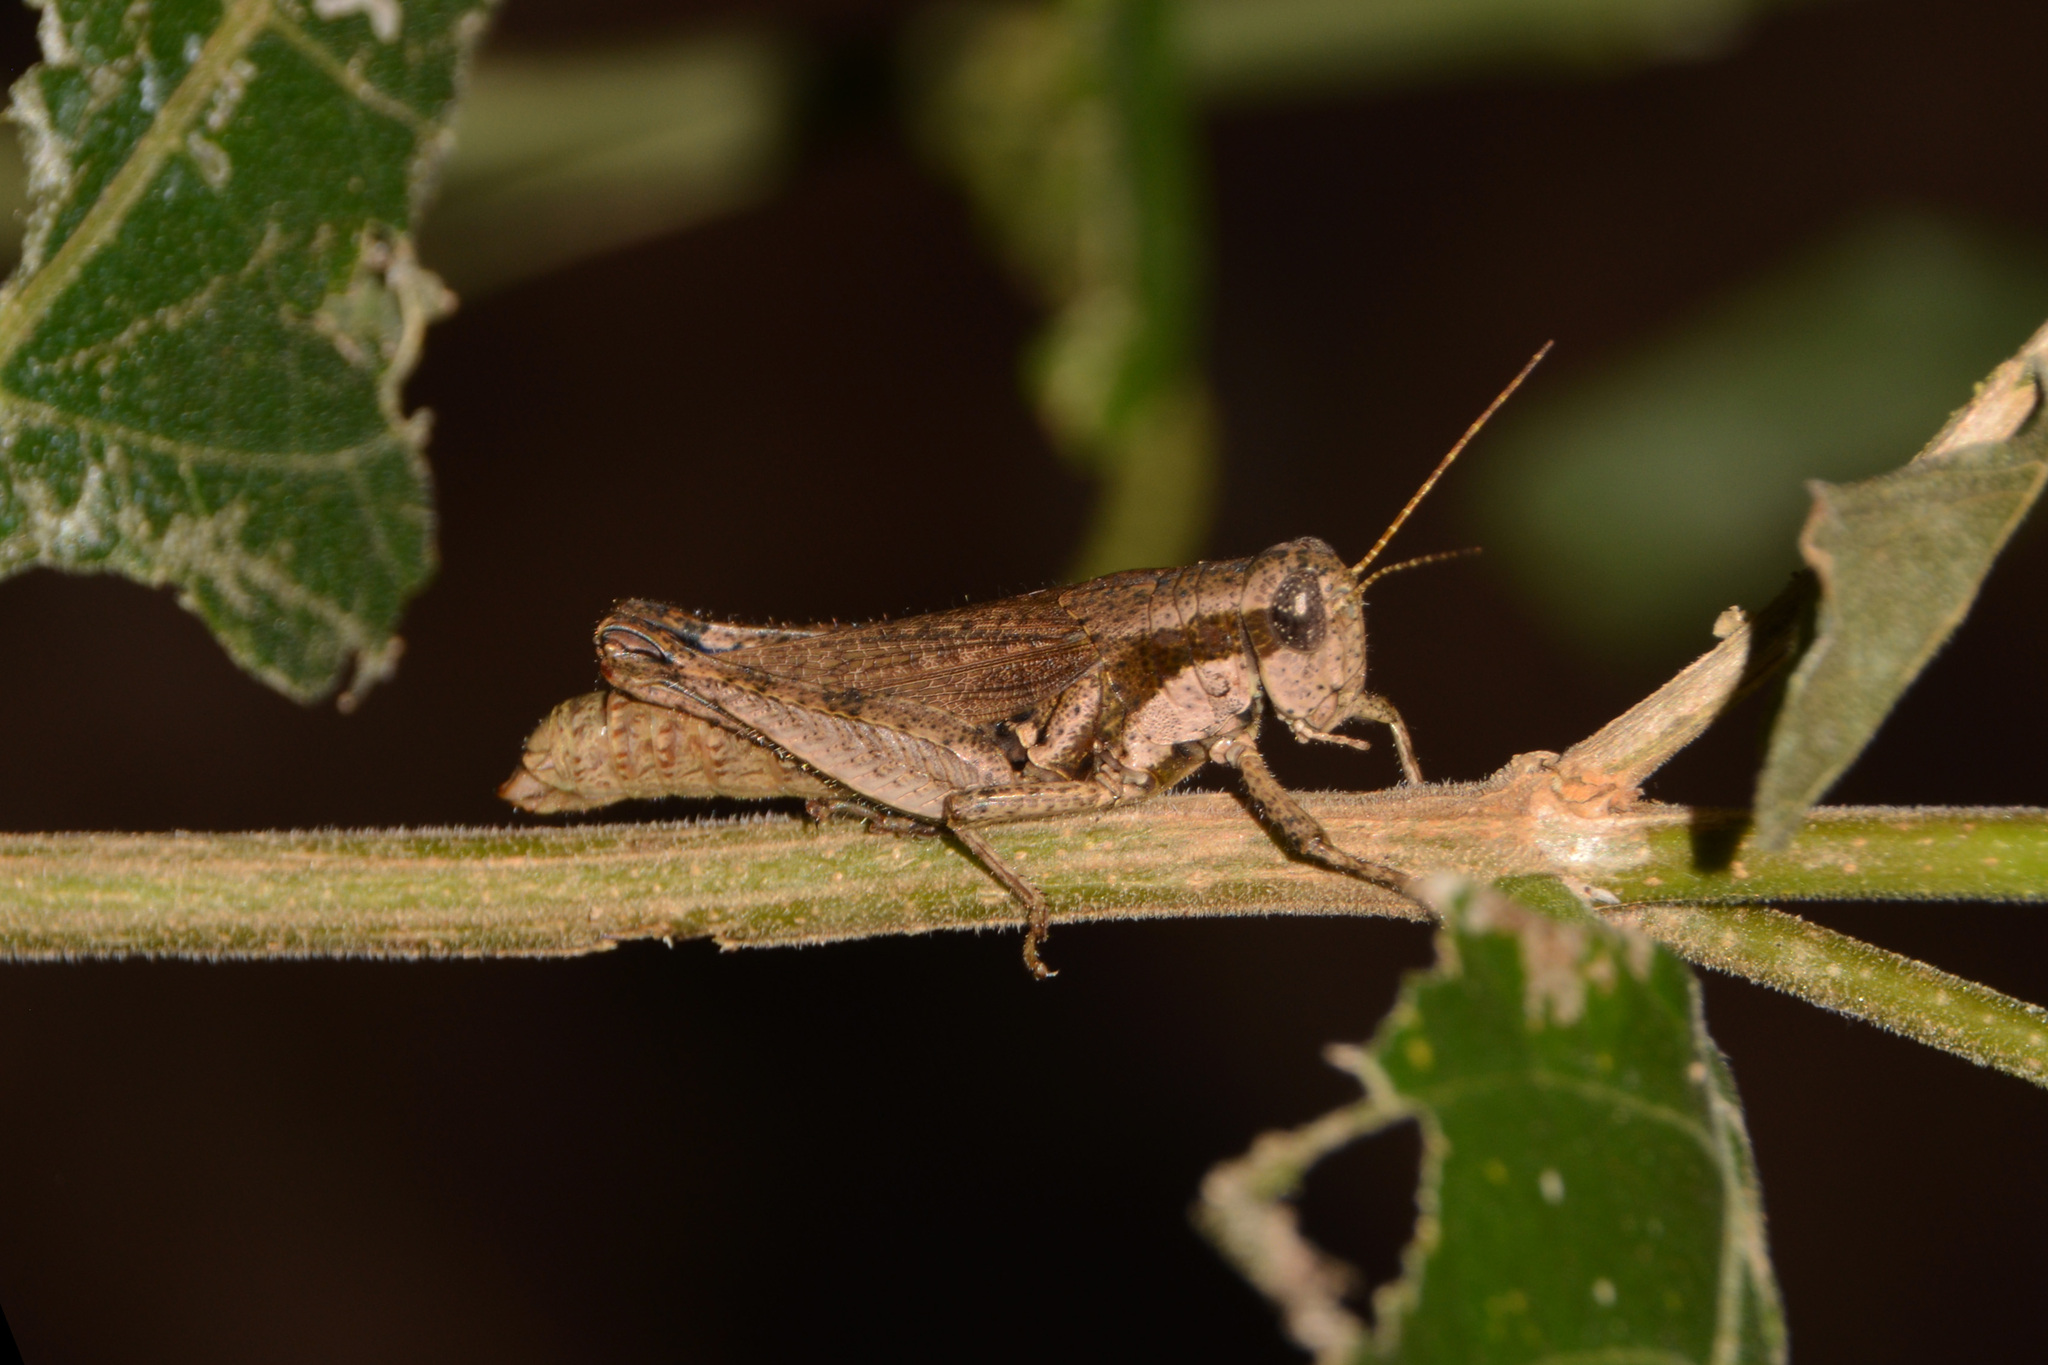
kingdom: Animalia
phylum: Arthropoda
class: Insecta
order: Orthoptera
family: Acrididae
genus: Ronderosia
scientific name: Ronderosia bergii
